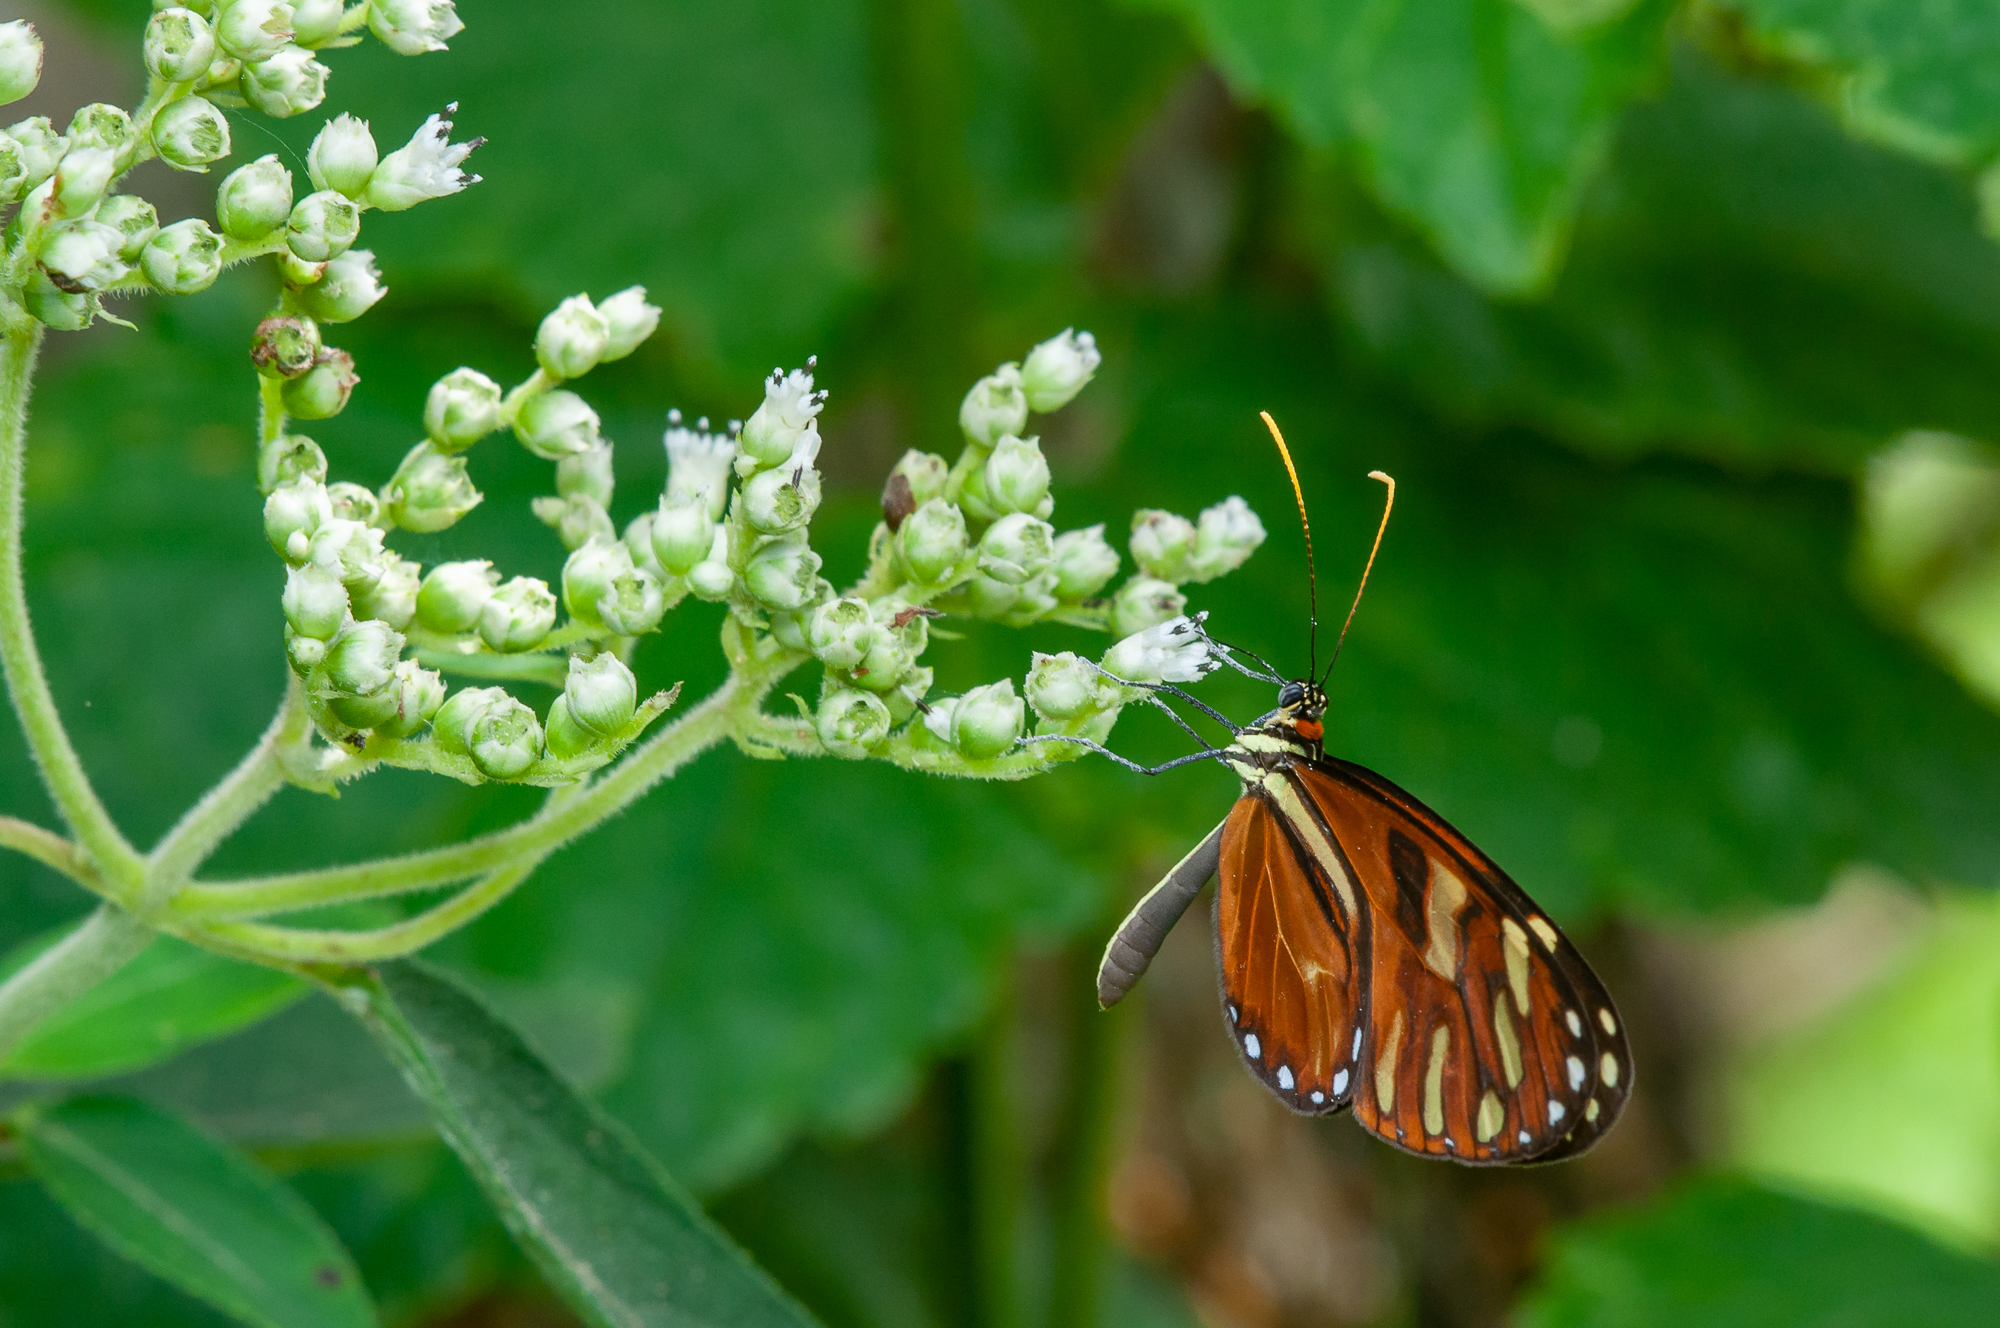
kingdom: Animalia
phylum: Arthropoda
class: Insecta
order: Lepidoptera
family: Nymphalidae
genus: Ithomia
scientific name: Ithomia heraldica
